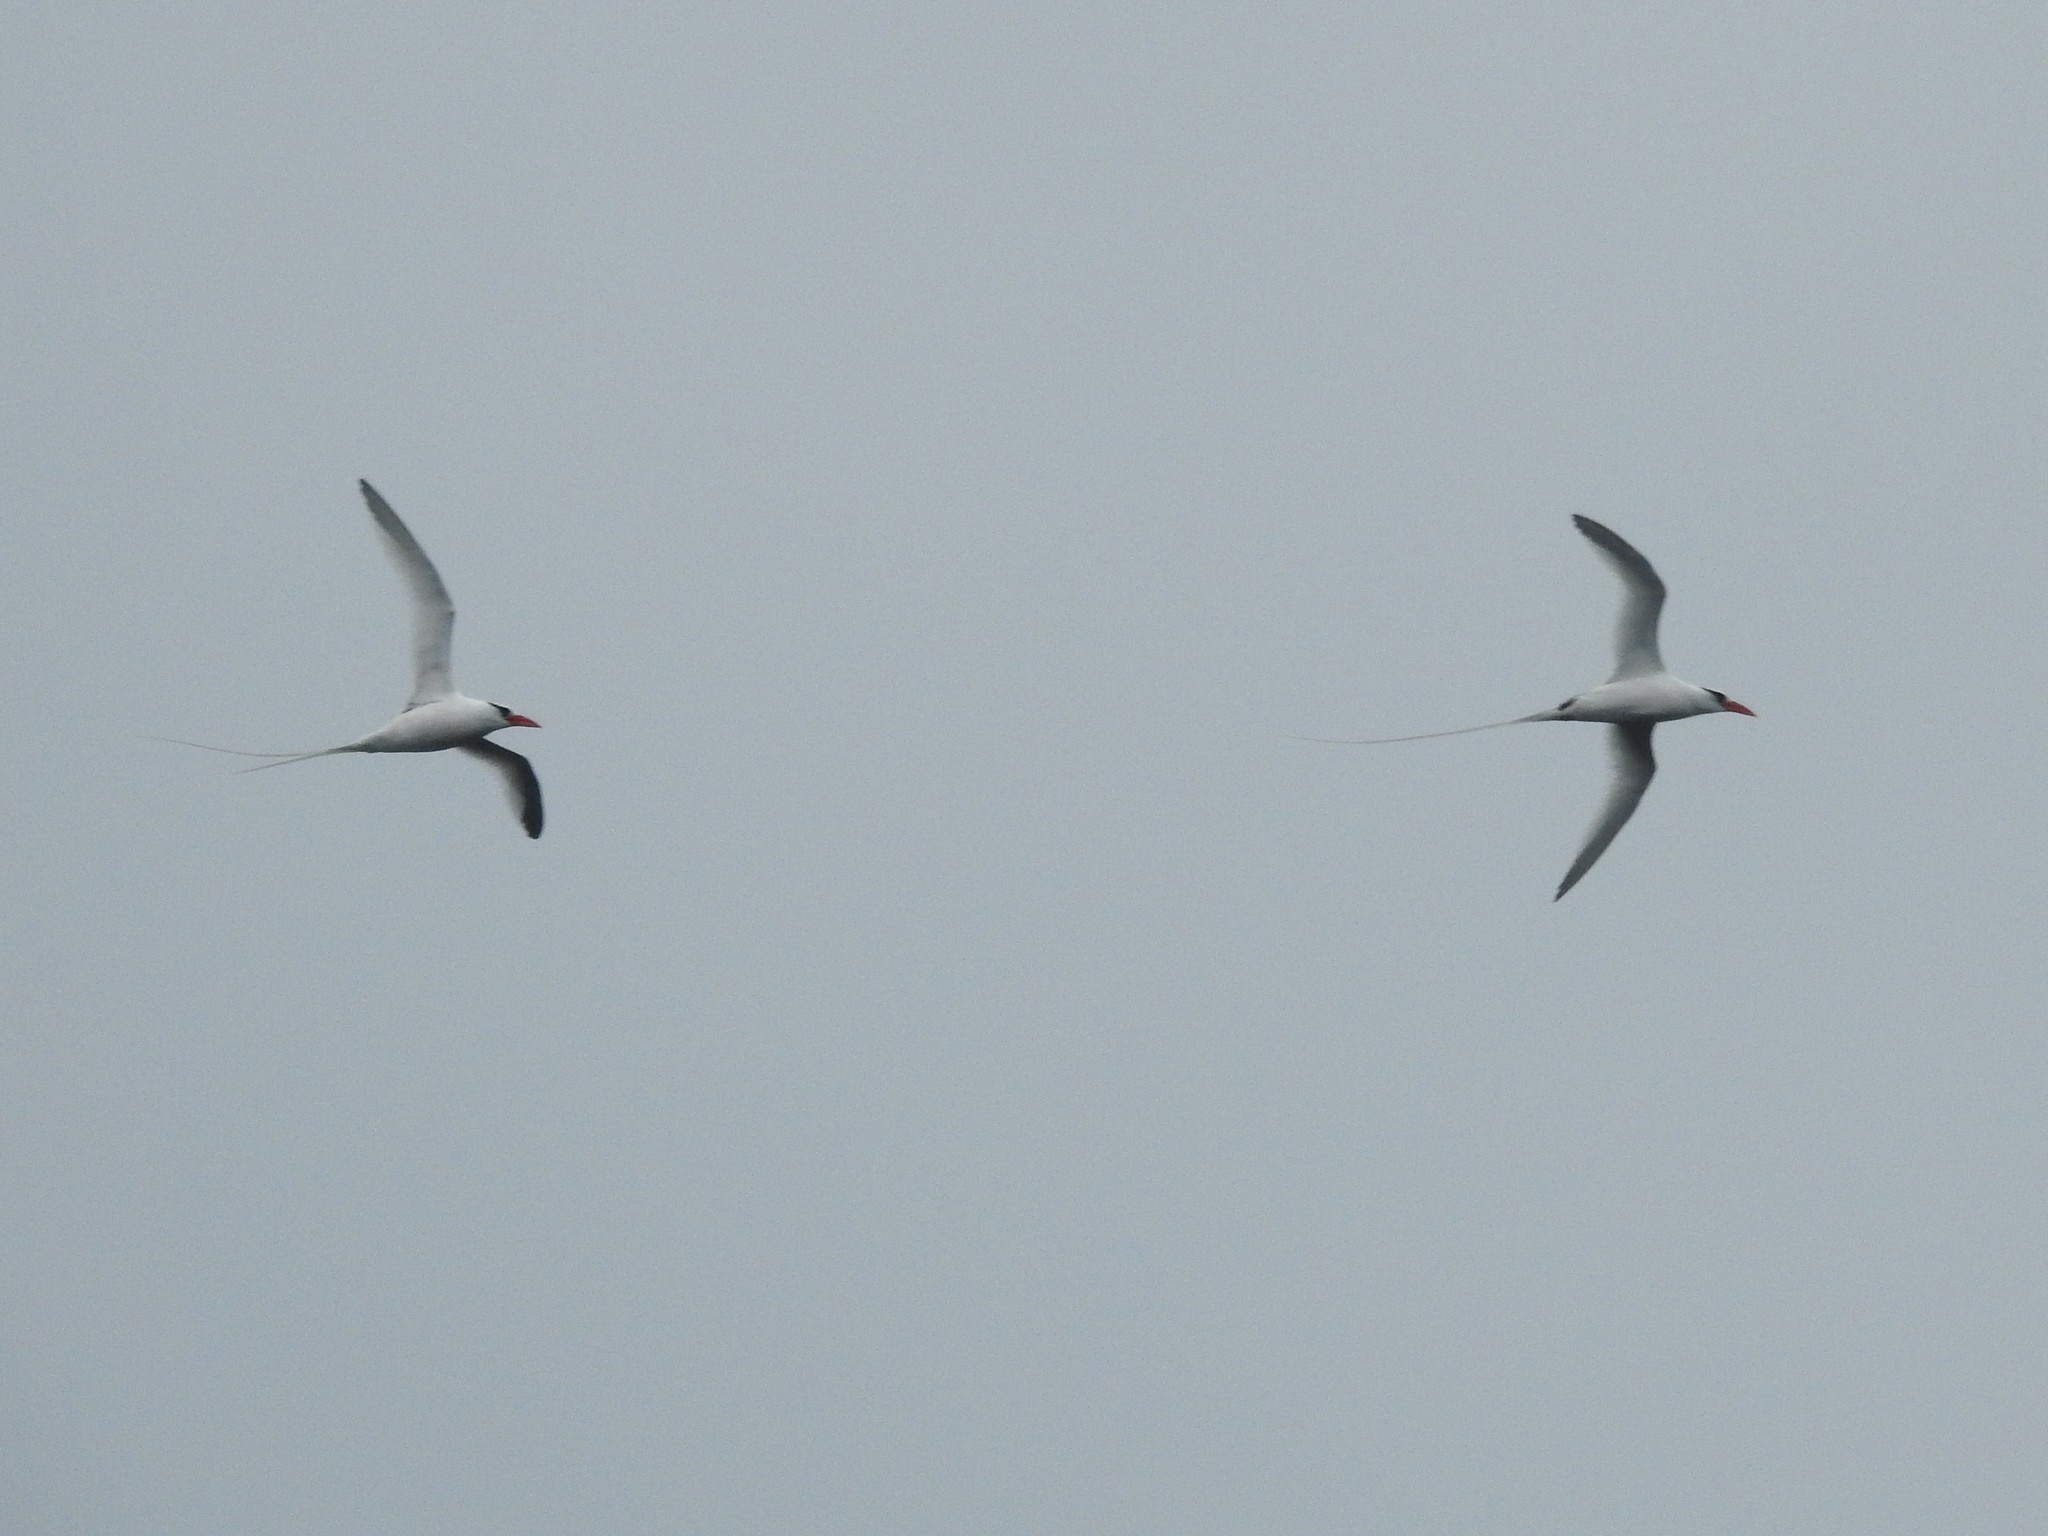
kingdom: Animalia
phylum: Chordata
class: Aves
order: Phaethontiformes
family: Phaethontidae
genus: Phaethon
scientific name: Phaethon aethereus
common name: Red-billed tropicbird
